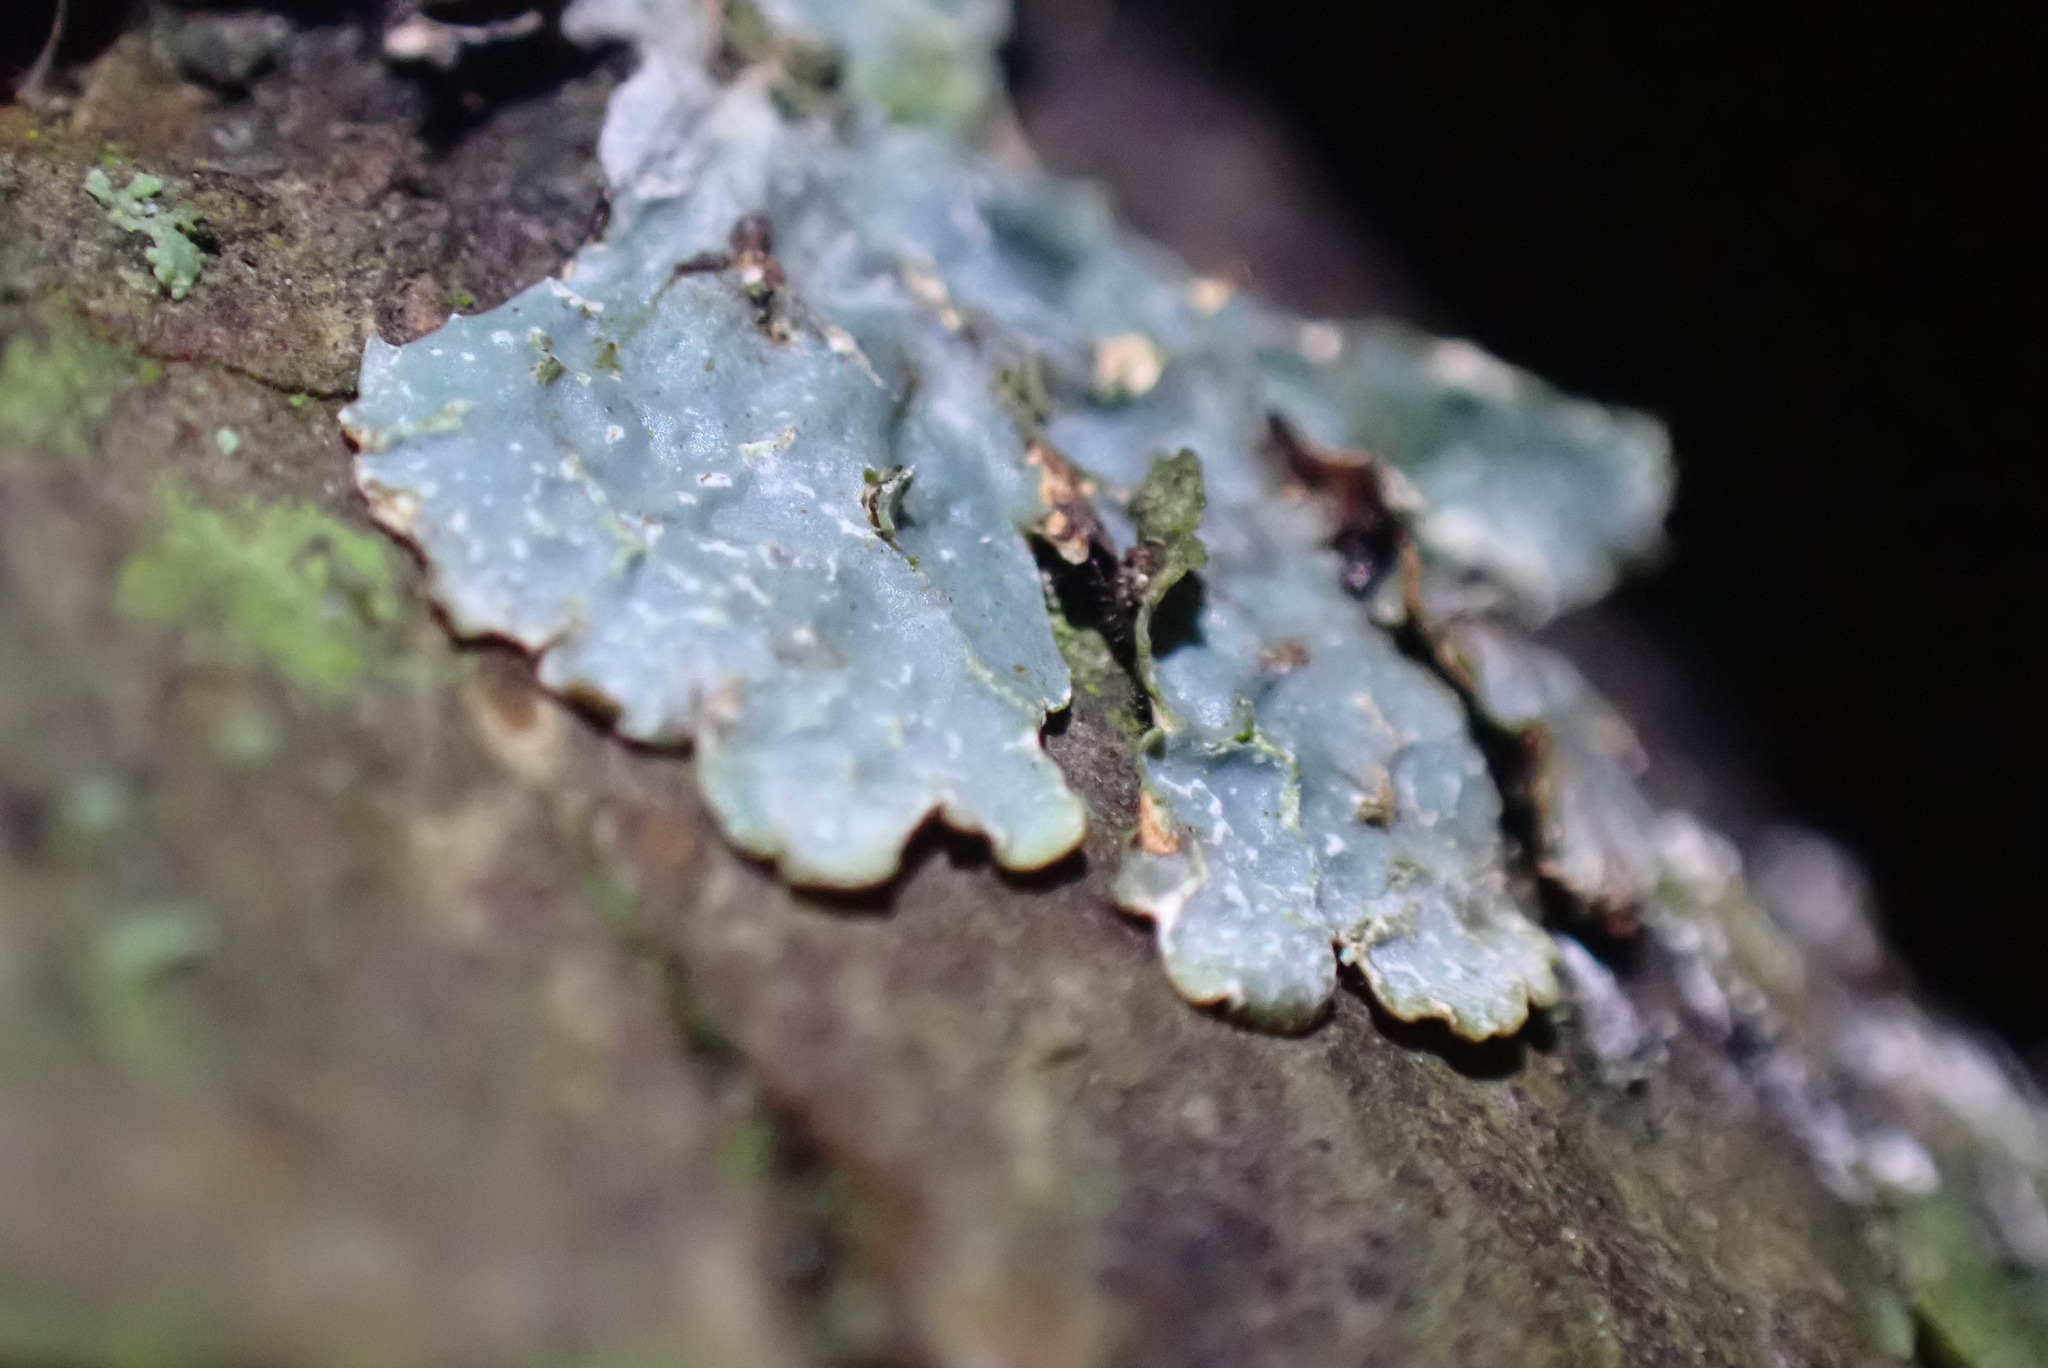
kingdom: Fungi
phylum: Ascomycota
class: Lecanoromycetes
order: Lecanorales
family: Parmeliaceae
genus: Parmelia
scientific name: Parmelia sulcata
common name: Netted shield lichen
